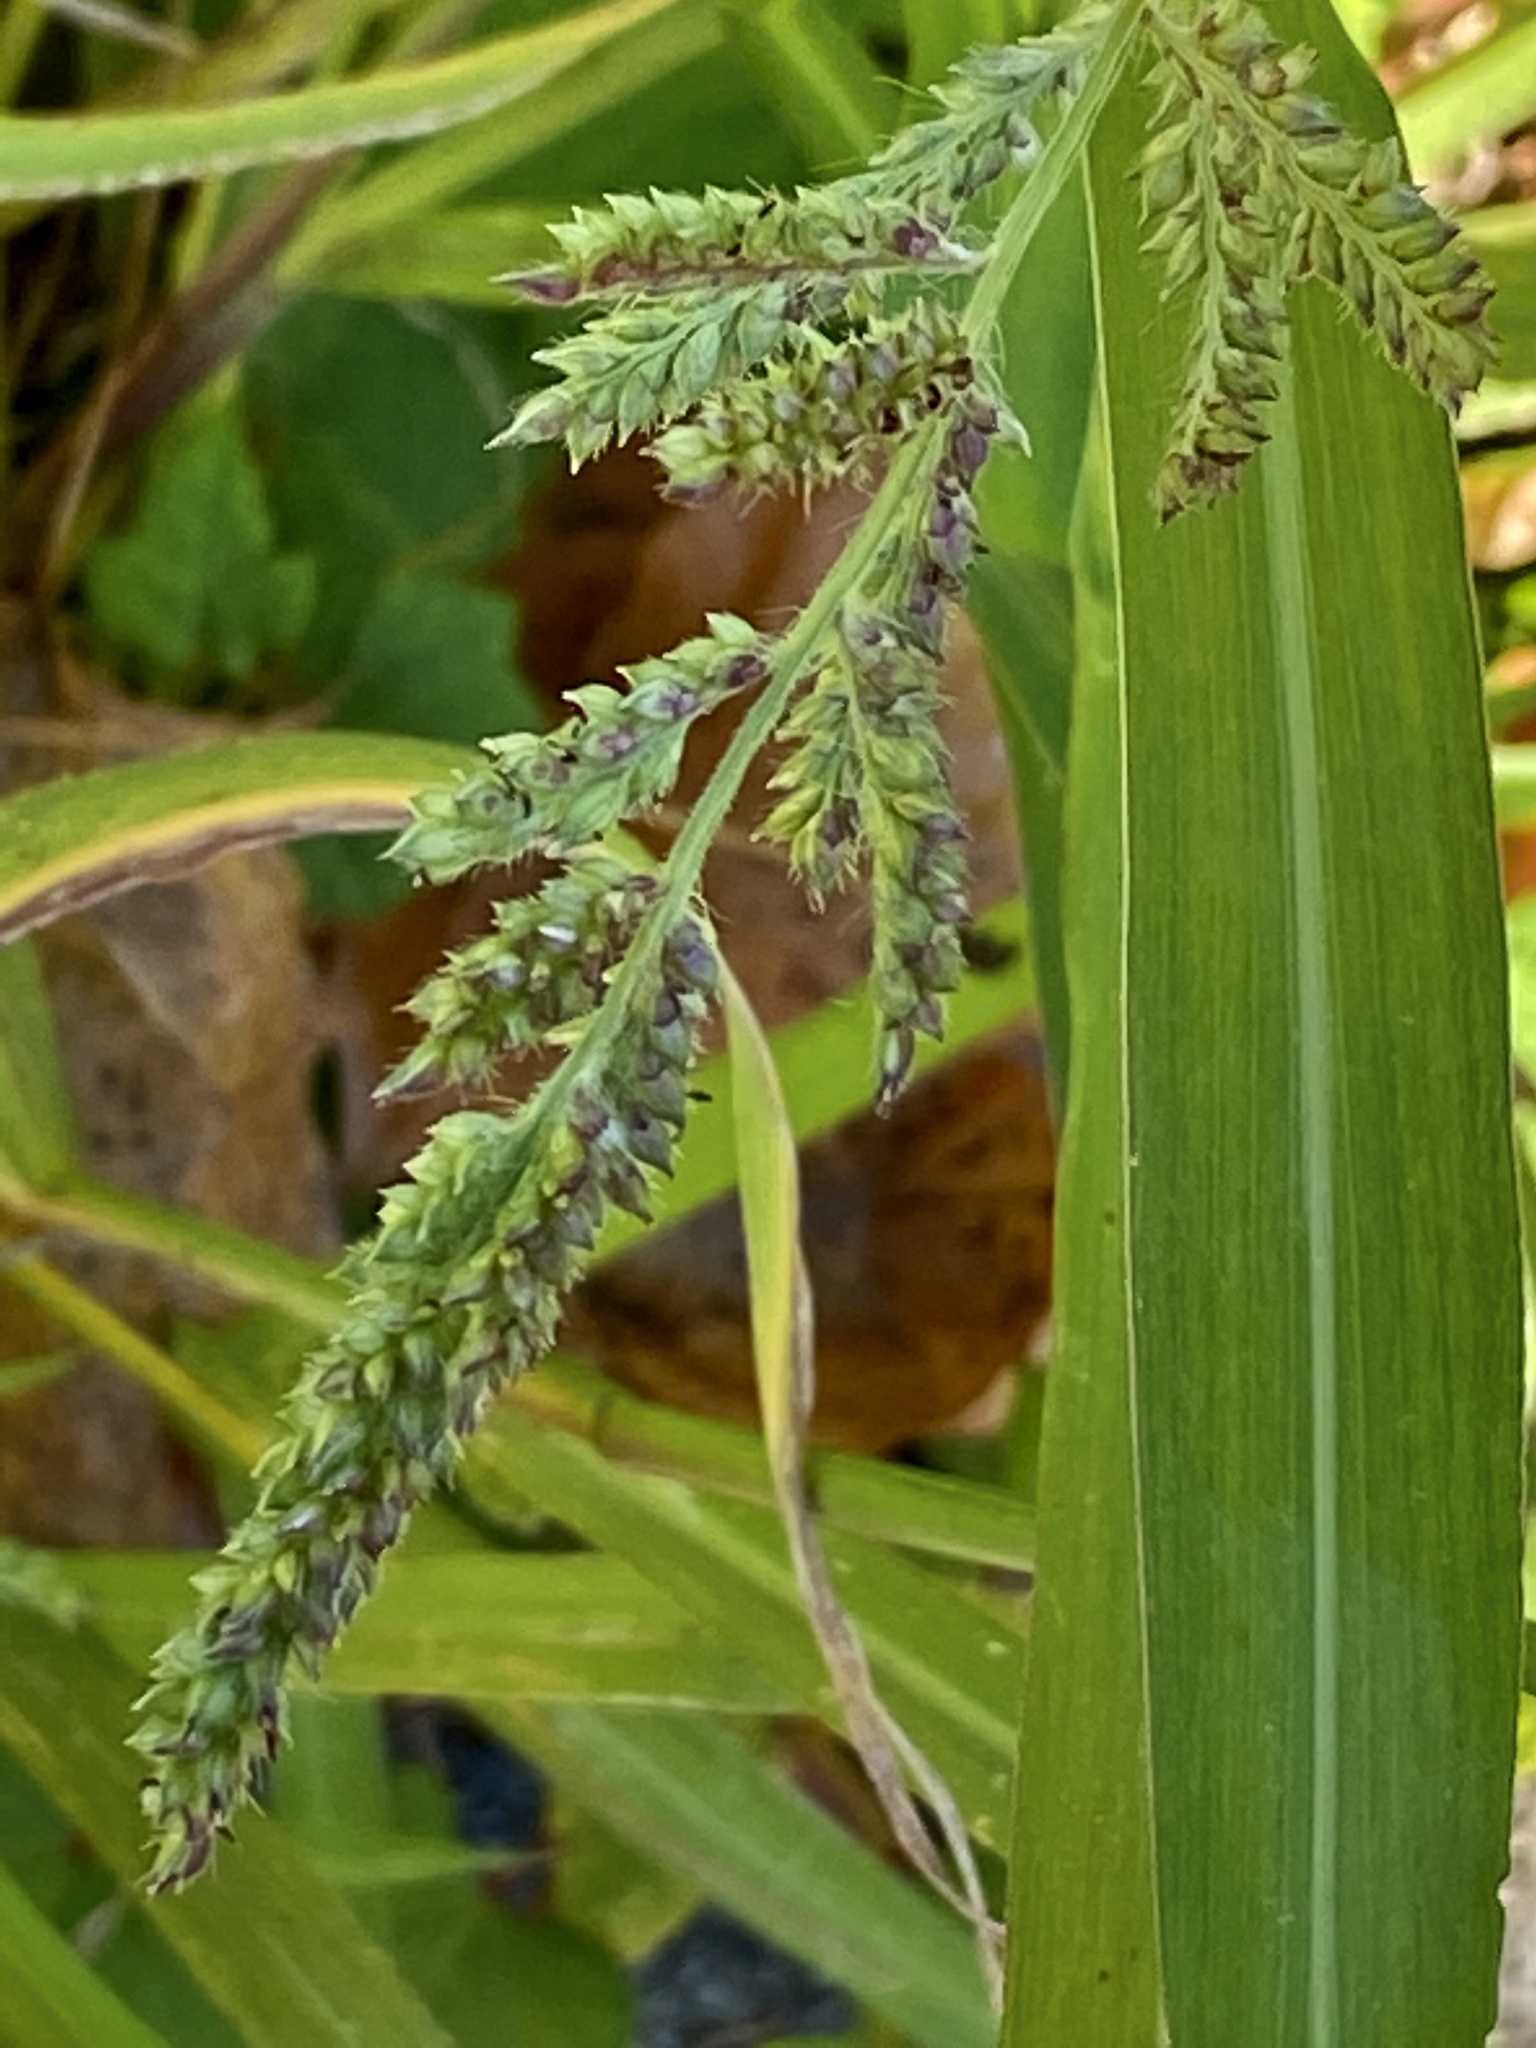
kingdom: Plantae
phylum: Tracheophyta
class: Liliopsida
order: Poales
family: Poaceae
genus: Echinochloa
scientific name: Echinochloa crus-galli
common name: Cockspur
